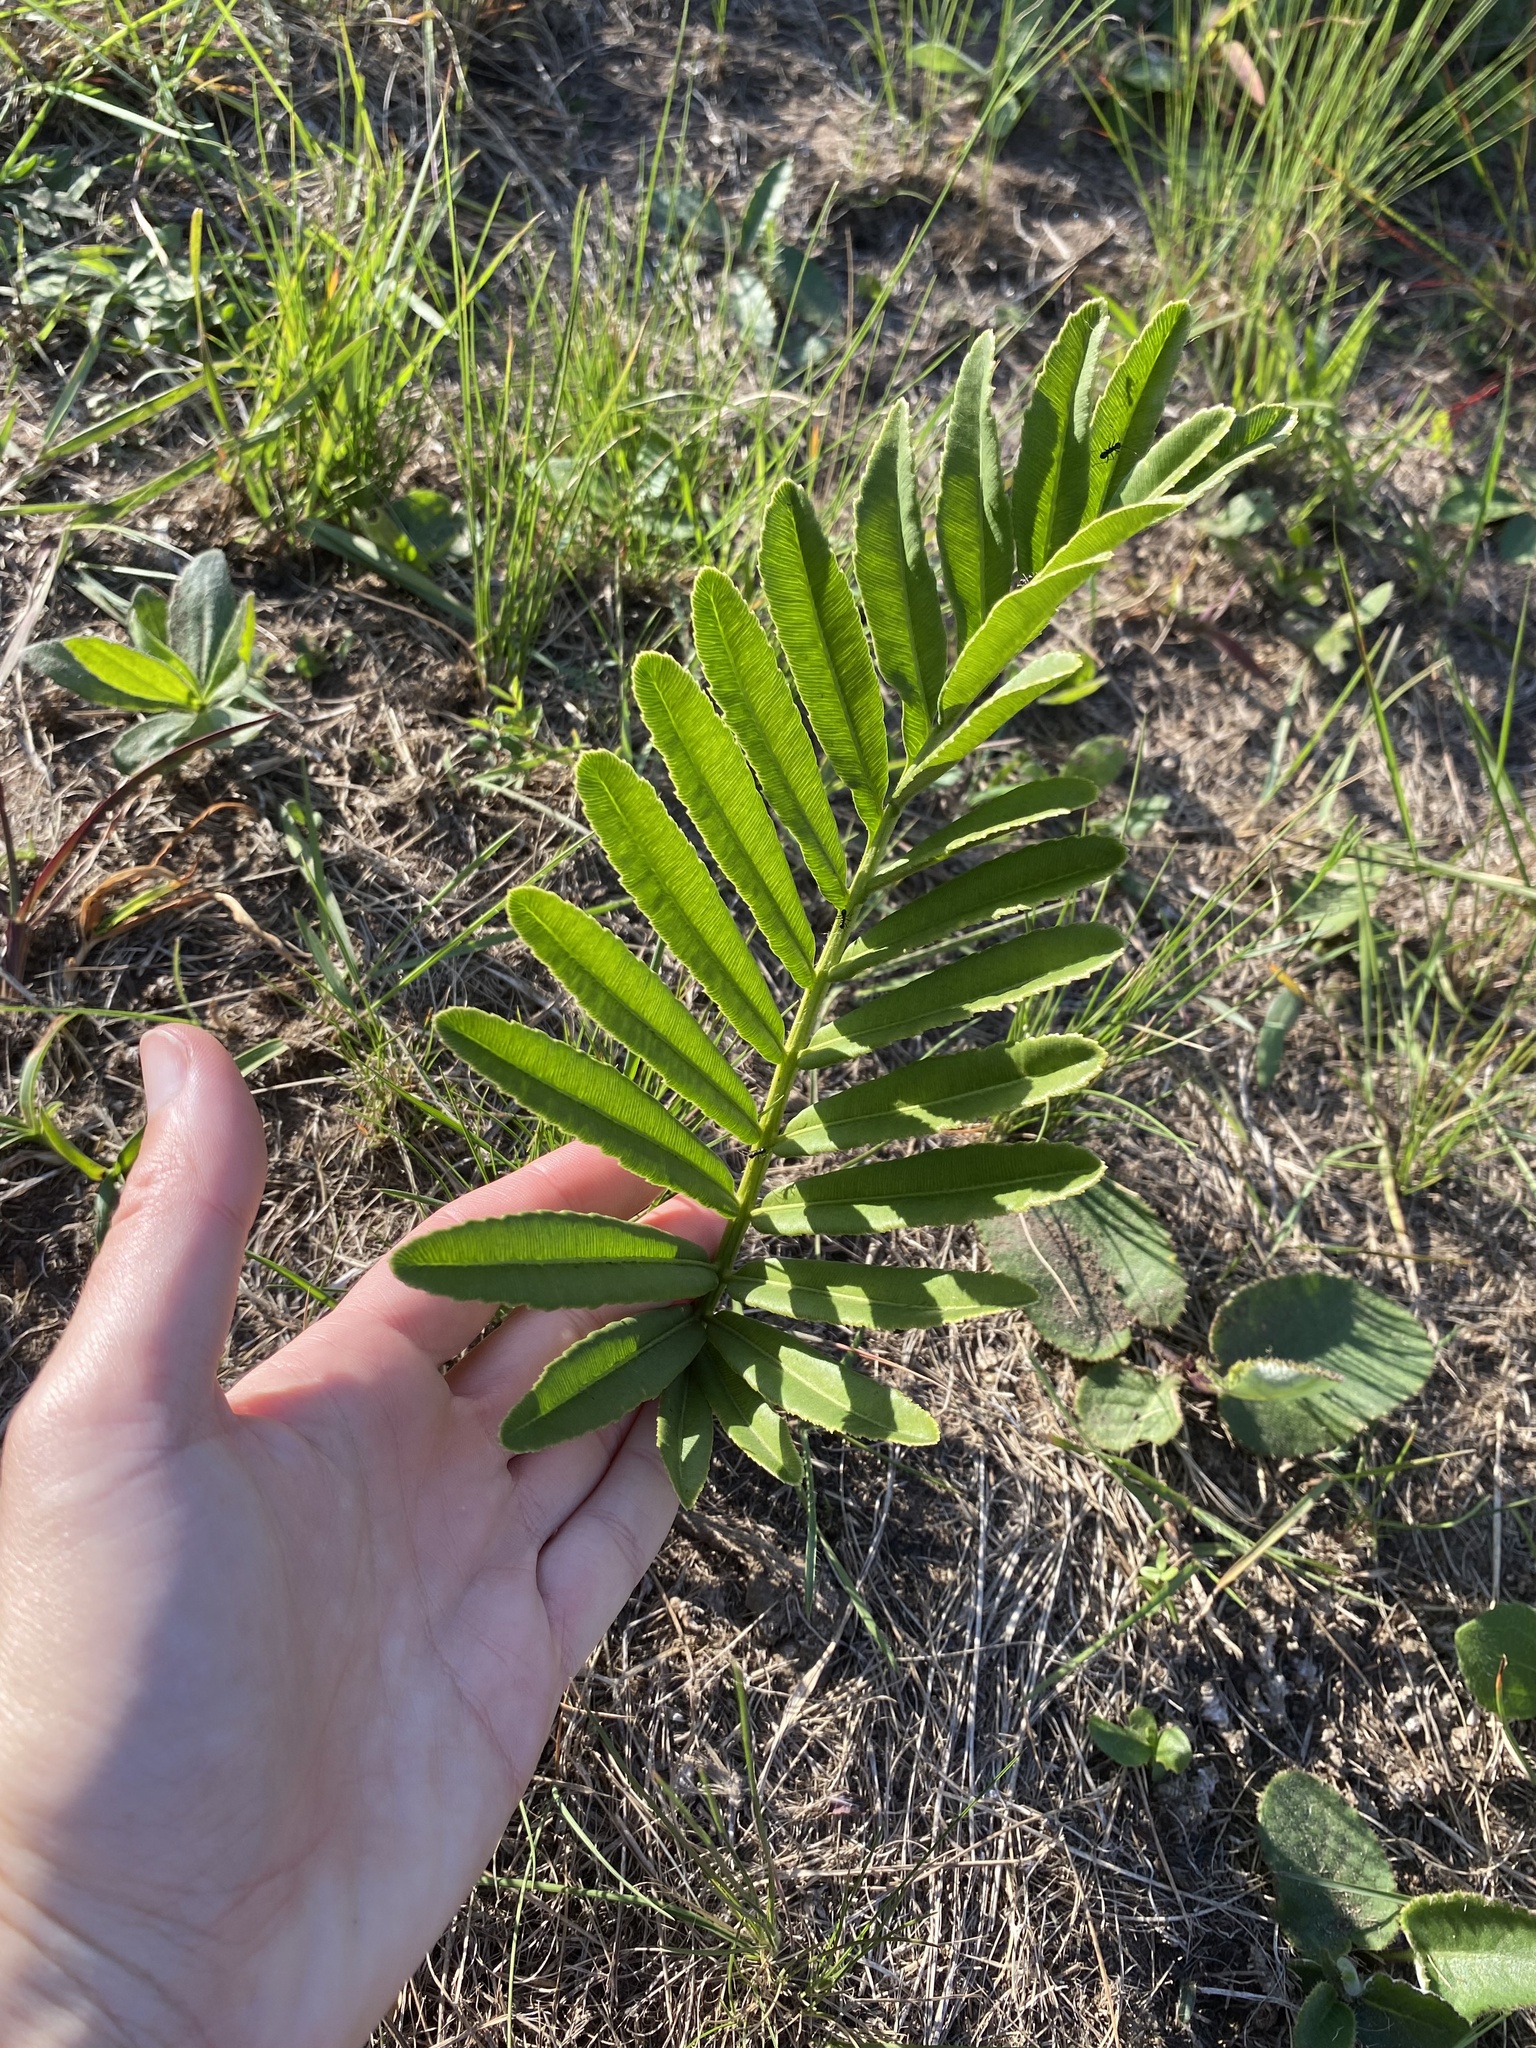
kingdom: Plantae
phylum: Tracheophyta
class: Cycadopsida
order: Cycadales
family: Zamiaceae
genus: Stangeria
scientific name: Stangeria eriopus
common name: Natal grass cycad
